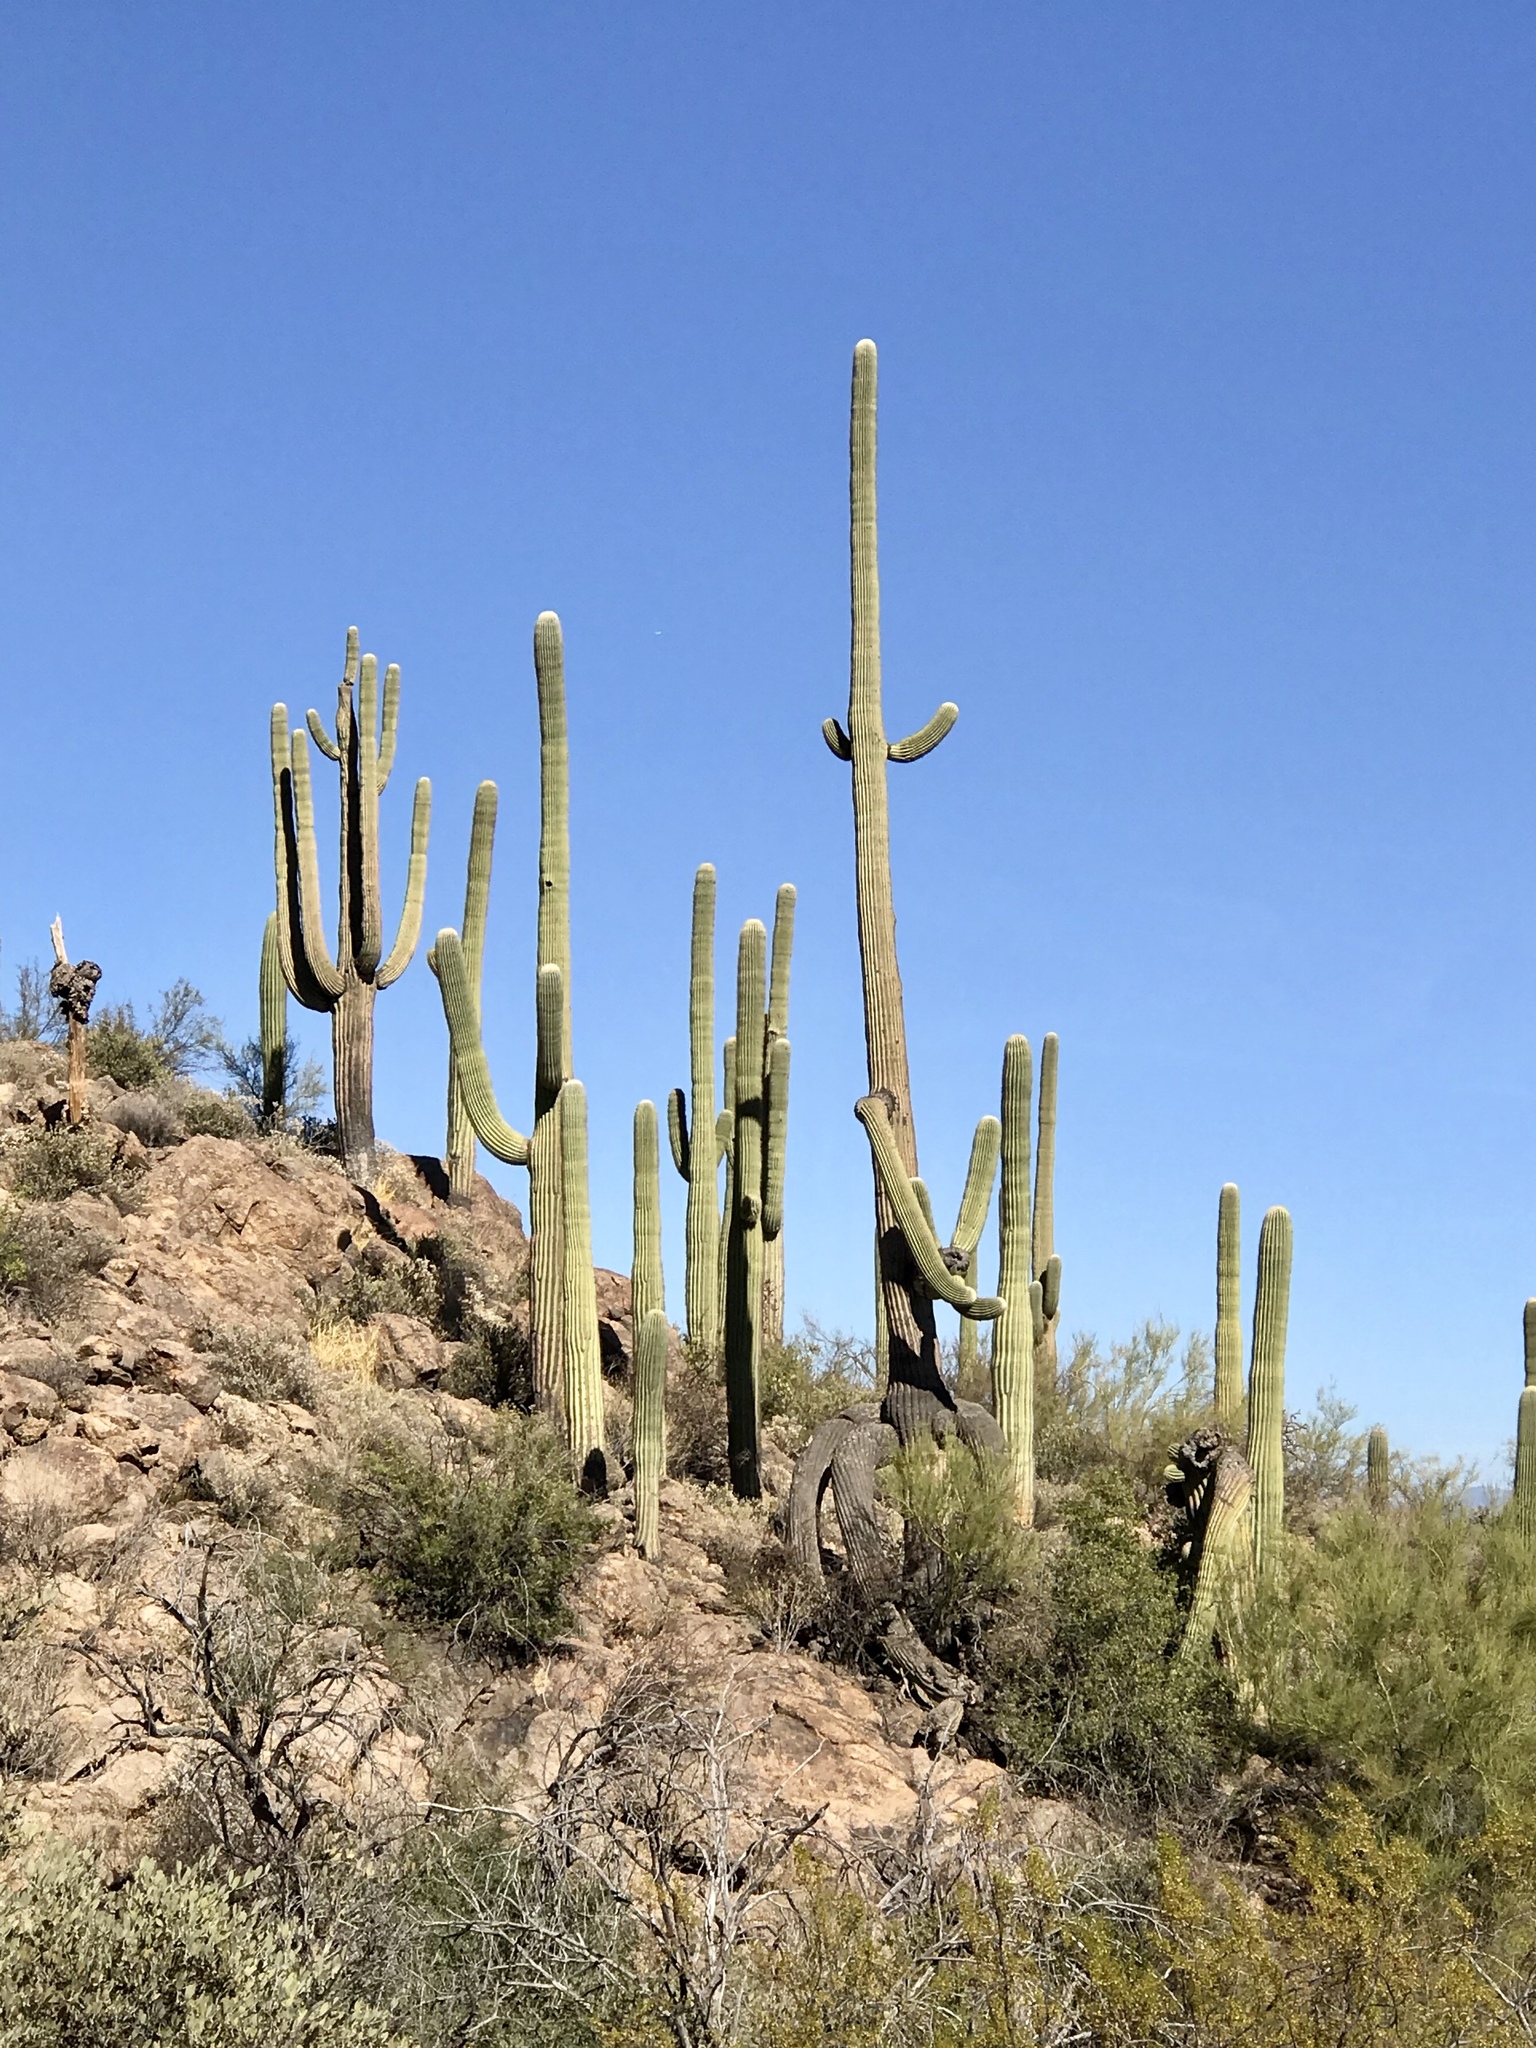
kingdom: Plantae
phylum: Tracheophyta
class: Magnoliopsida
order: Caryophyllales
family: Cactaceae
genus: Carnegiea
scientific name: Carnegiea gigantea
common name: Saguaro
